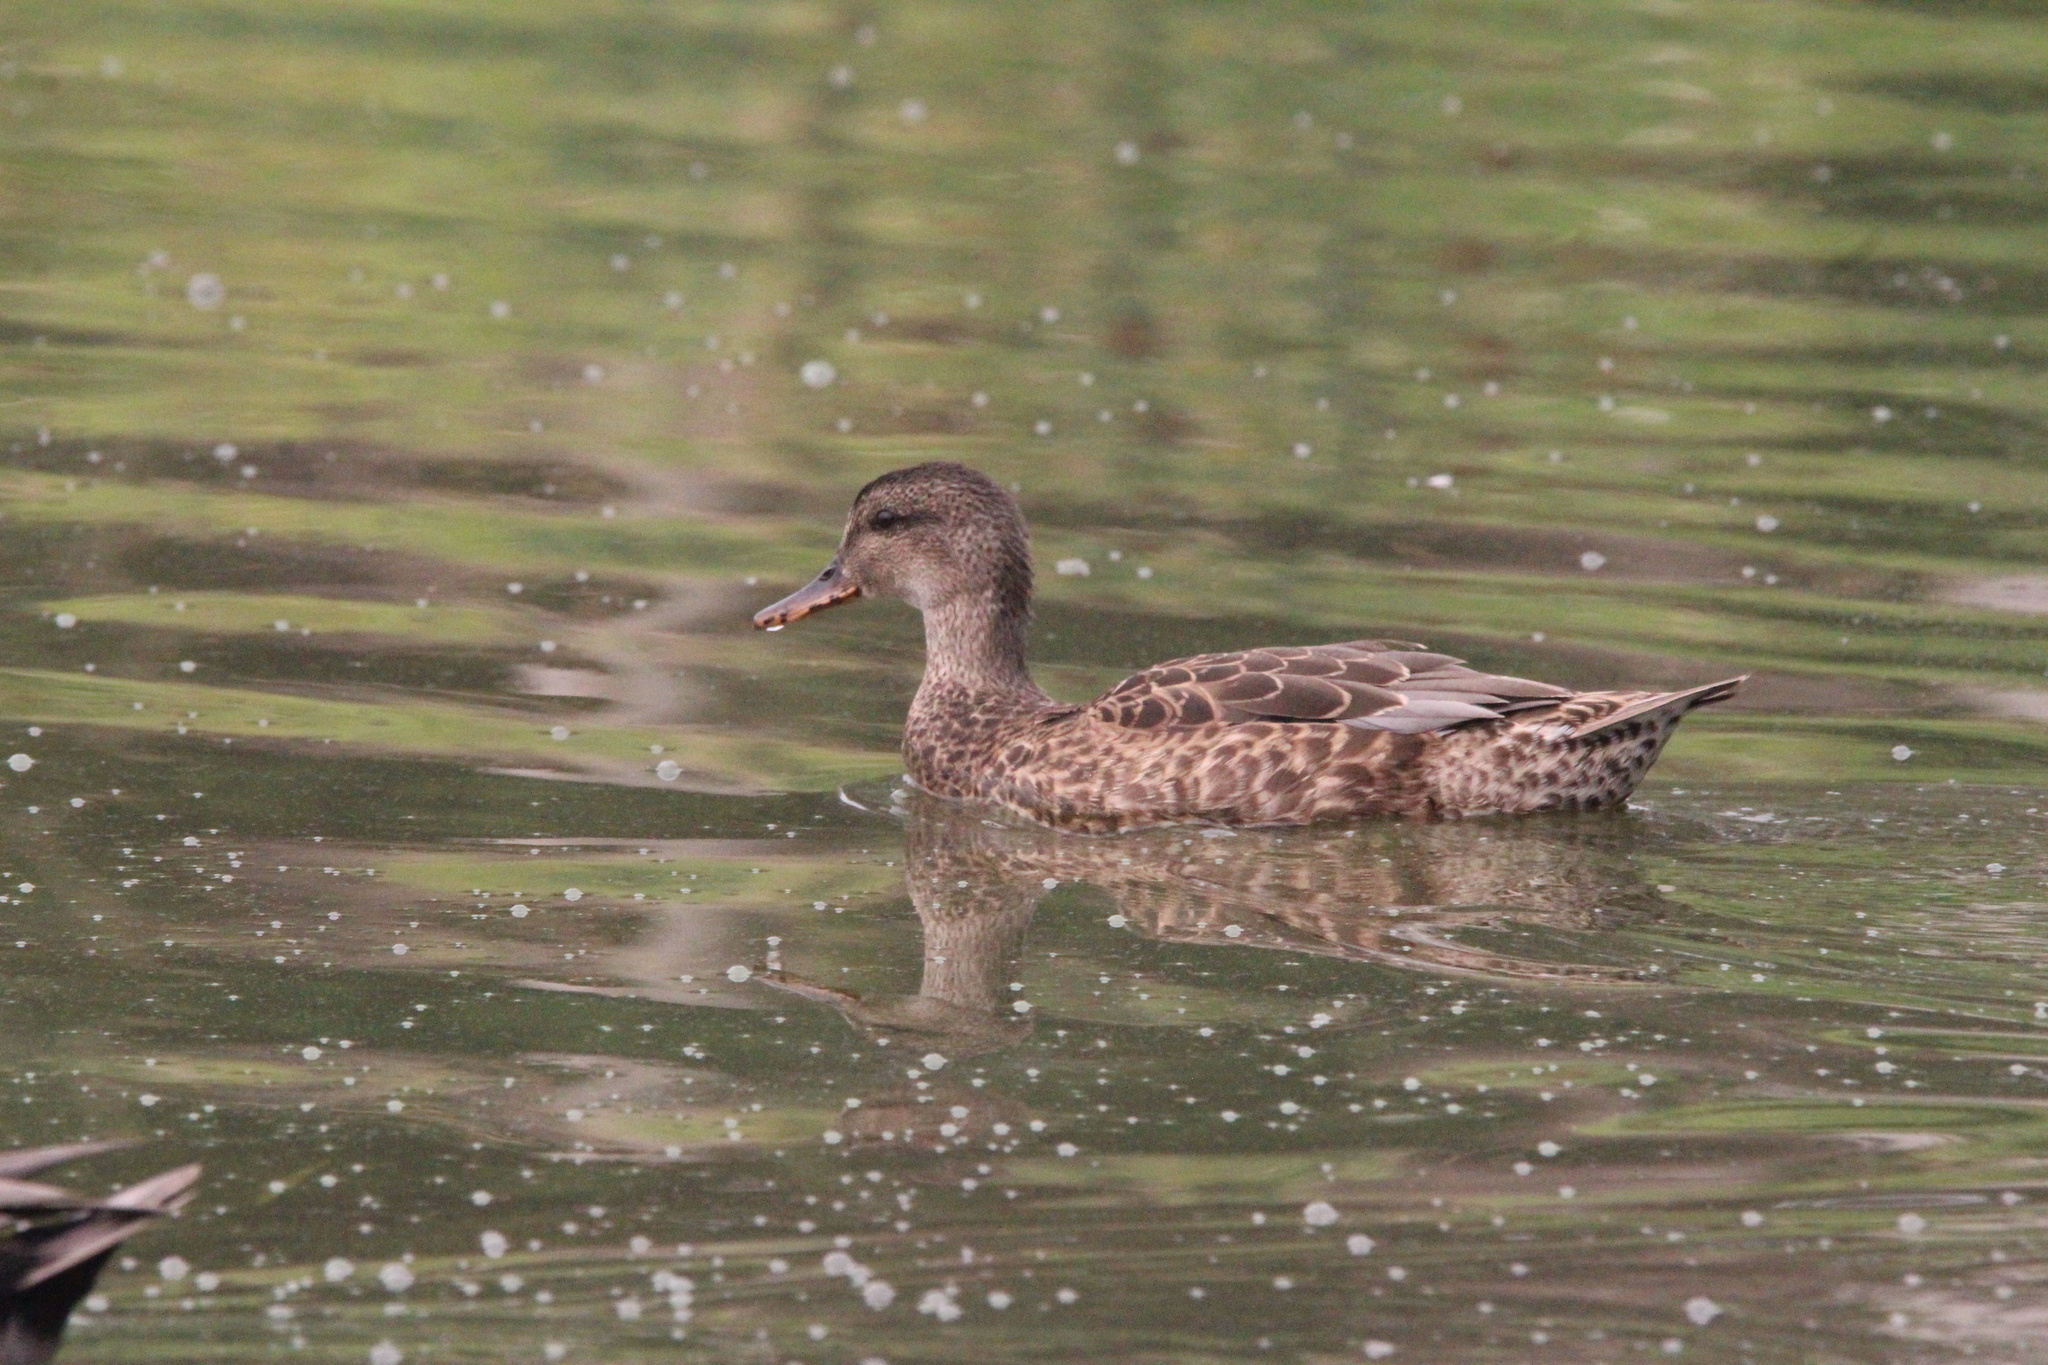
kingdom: Animalia
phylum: Chordata
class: Aves
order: Anseriformes
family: Anatidae
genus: Mareca
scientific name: Mareca strepera
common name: Gadwall
